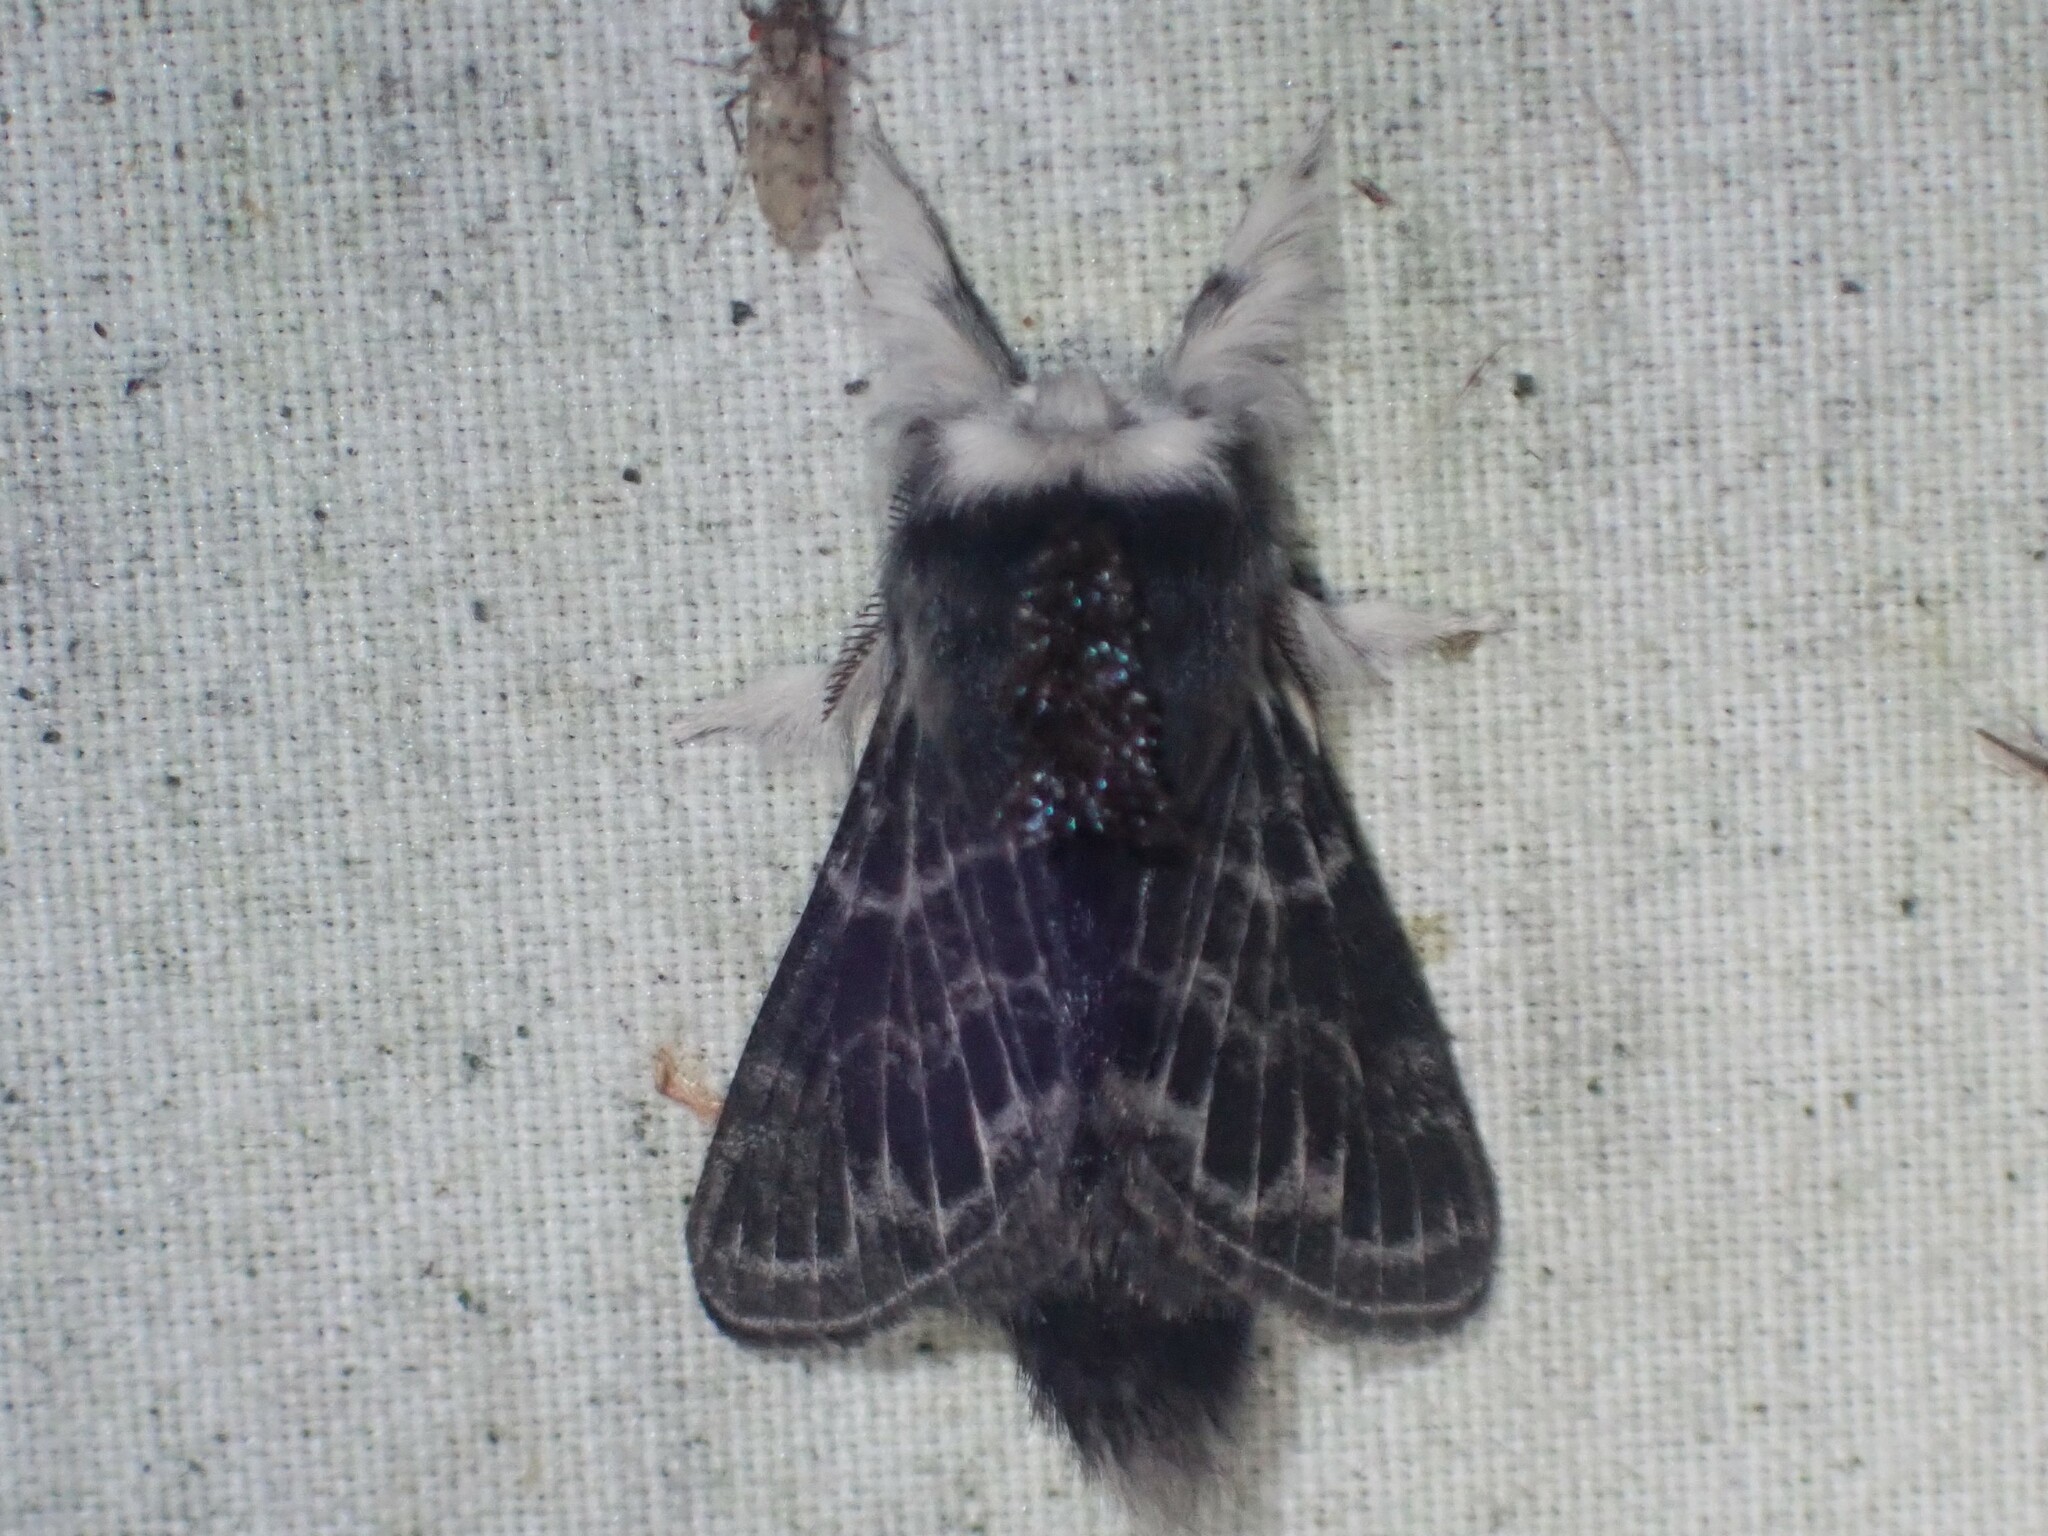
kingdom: Animalia
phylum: Arthropoda
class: Insecta
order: Lepidoptera
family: Lasiocampidae
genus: Tolype
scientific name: Tolype laricis
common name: Larch tolype moth
